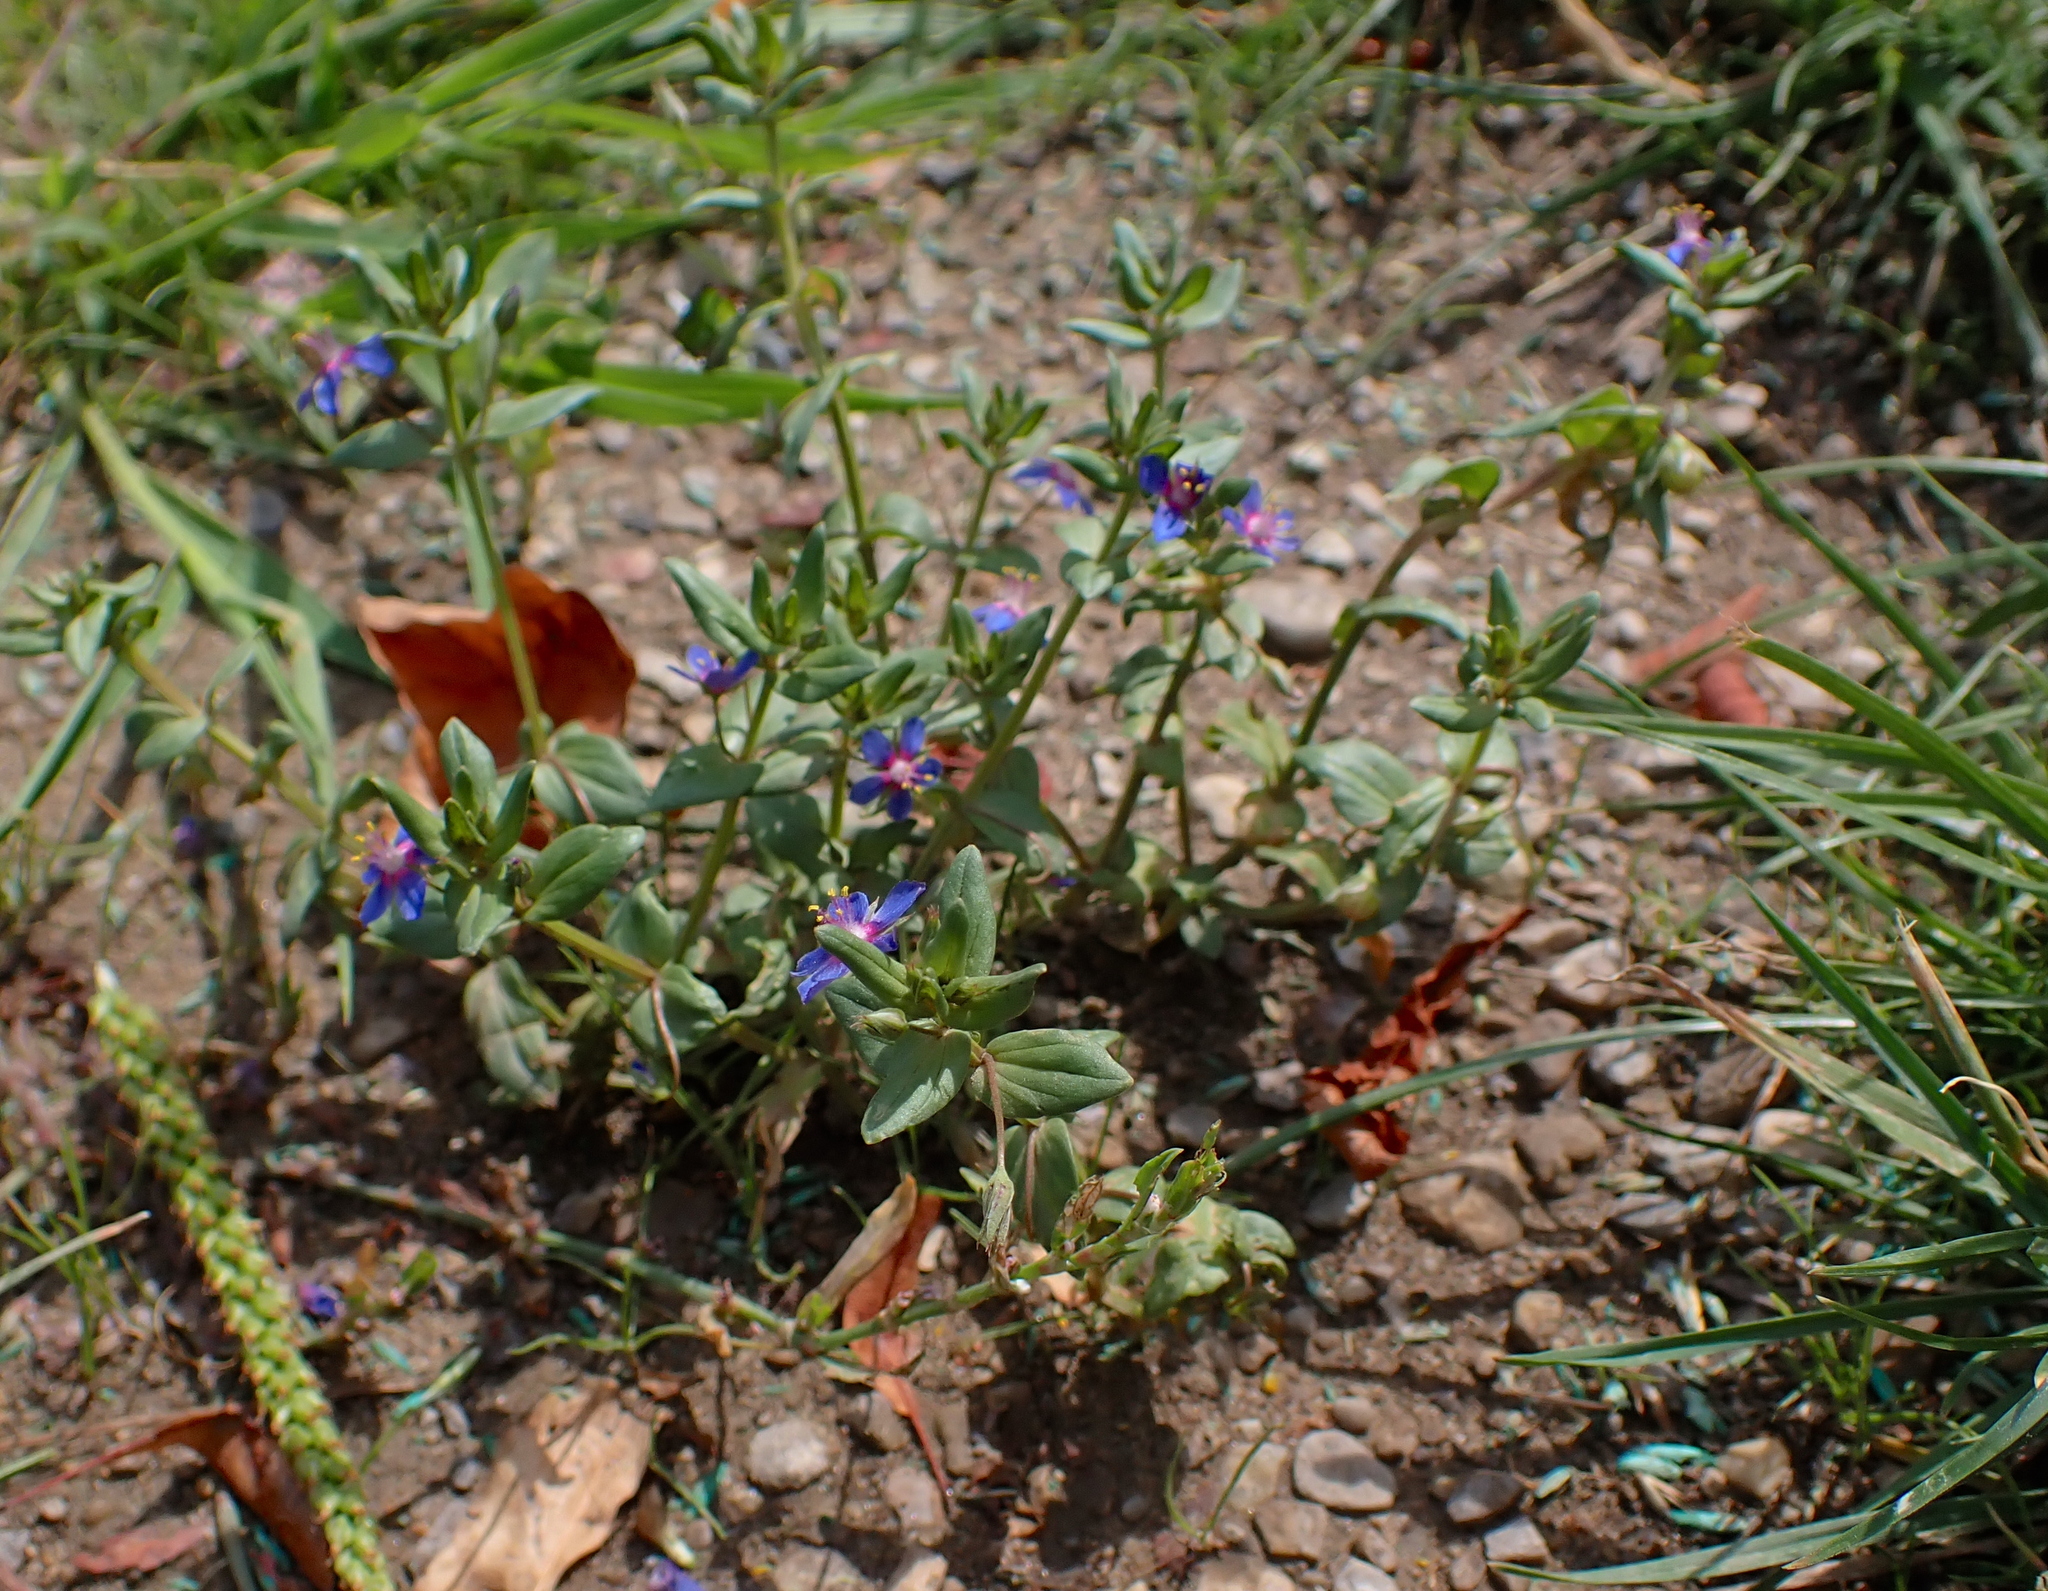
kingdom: Plantae
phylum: Tracheophyta
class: Magnoliopsida
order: Ericales
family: Primulaceae
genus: Lysimachia
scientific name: Lysimachia foemina
